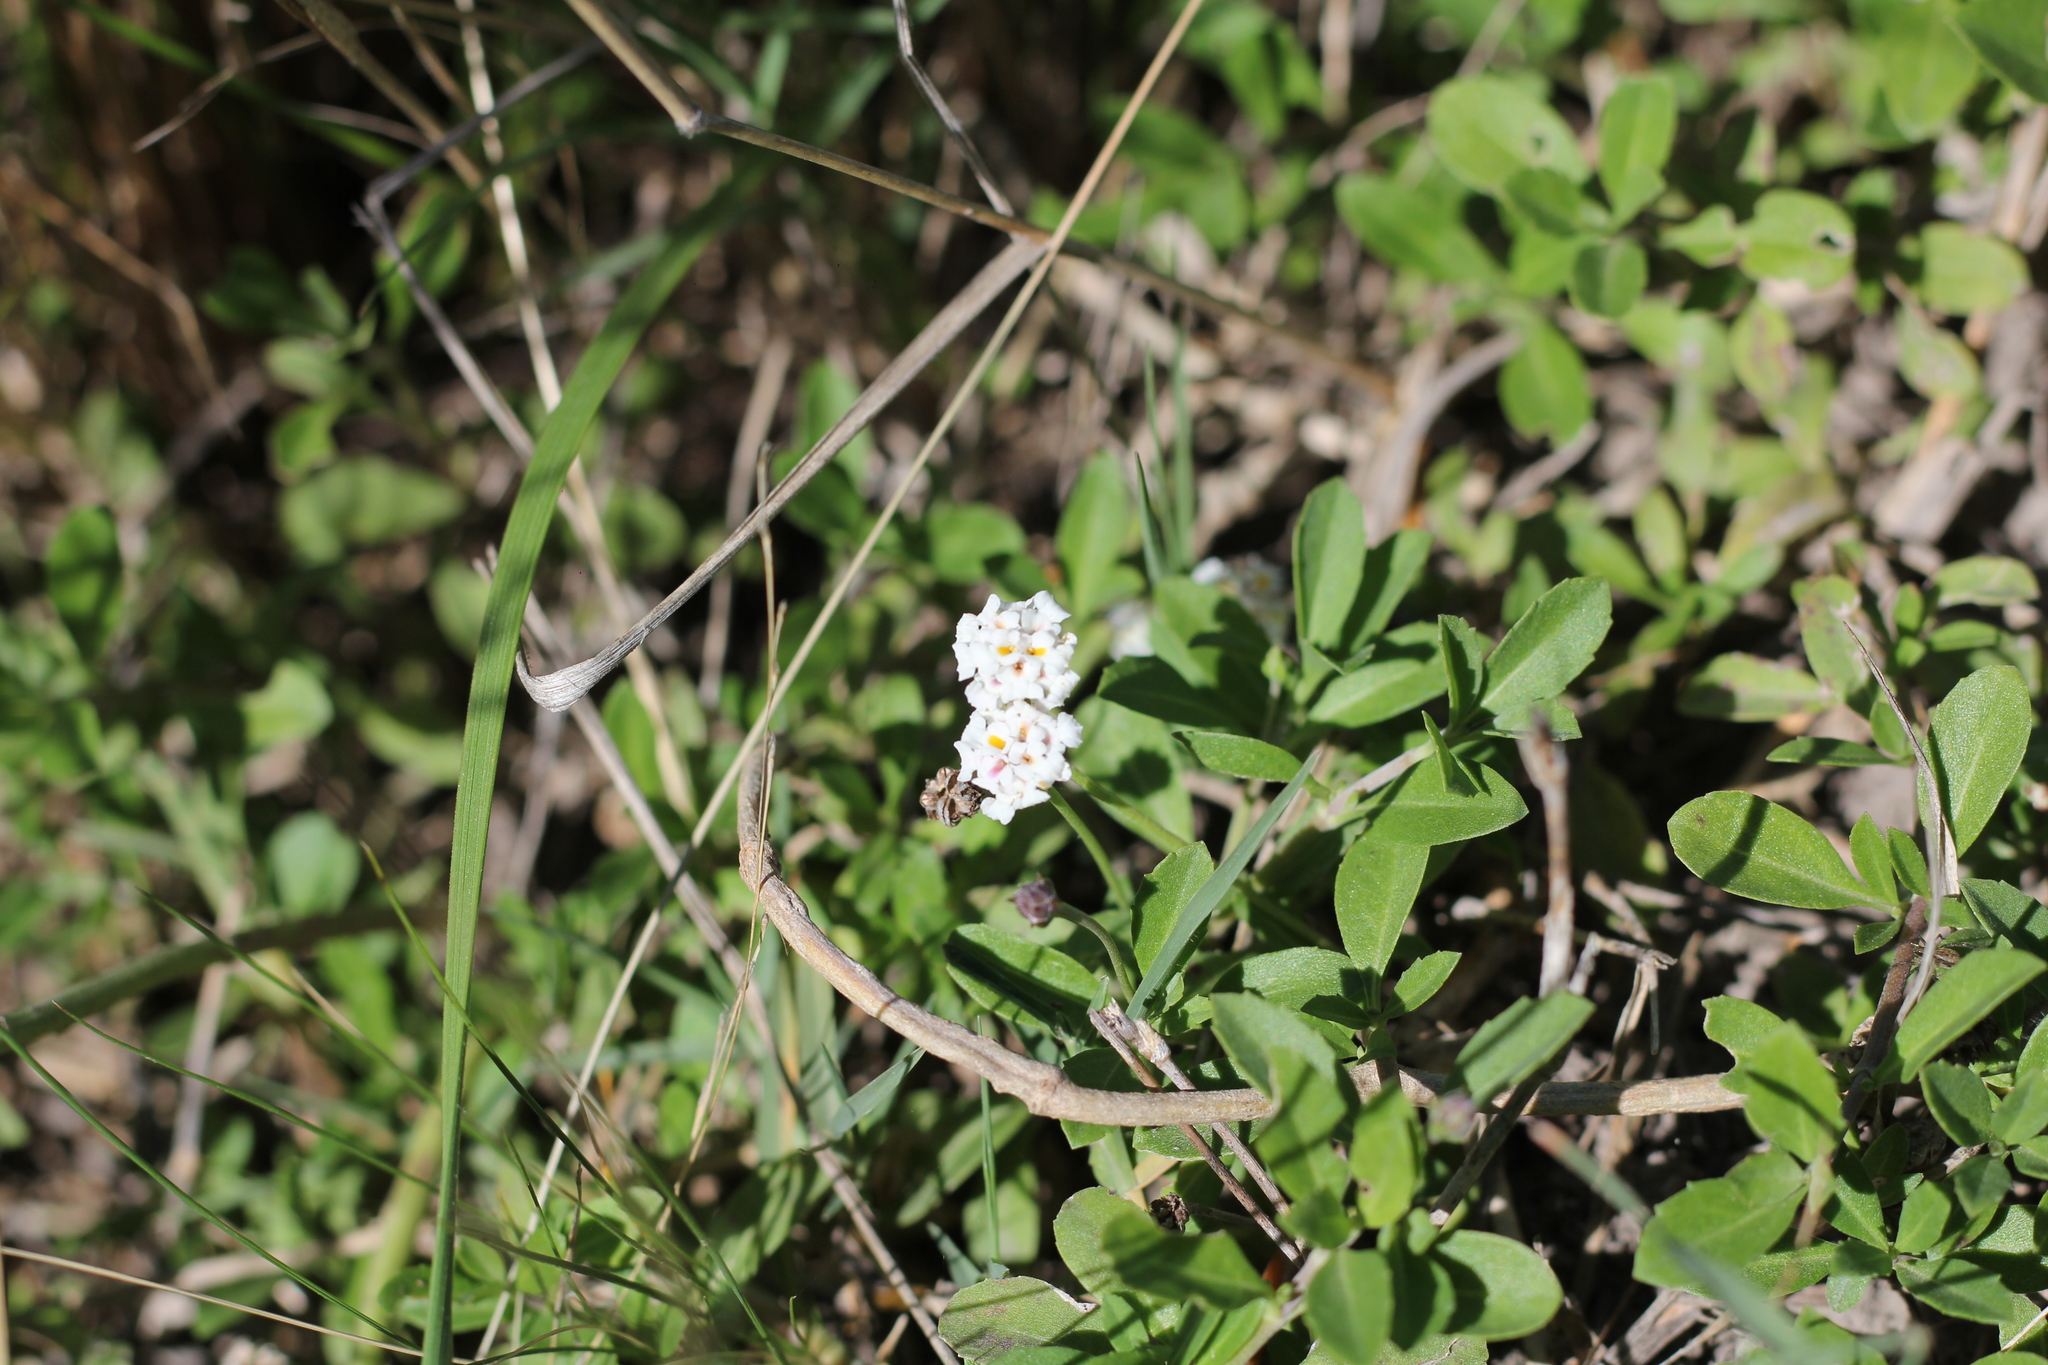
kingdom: Plantae
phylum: Tracheophyta
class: Magnoliopsida
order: Lamiales
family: Verbenaceae
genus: Phyla
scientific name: Phyla nodiflora
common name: Frogfruit
